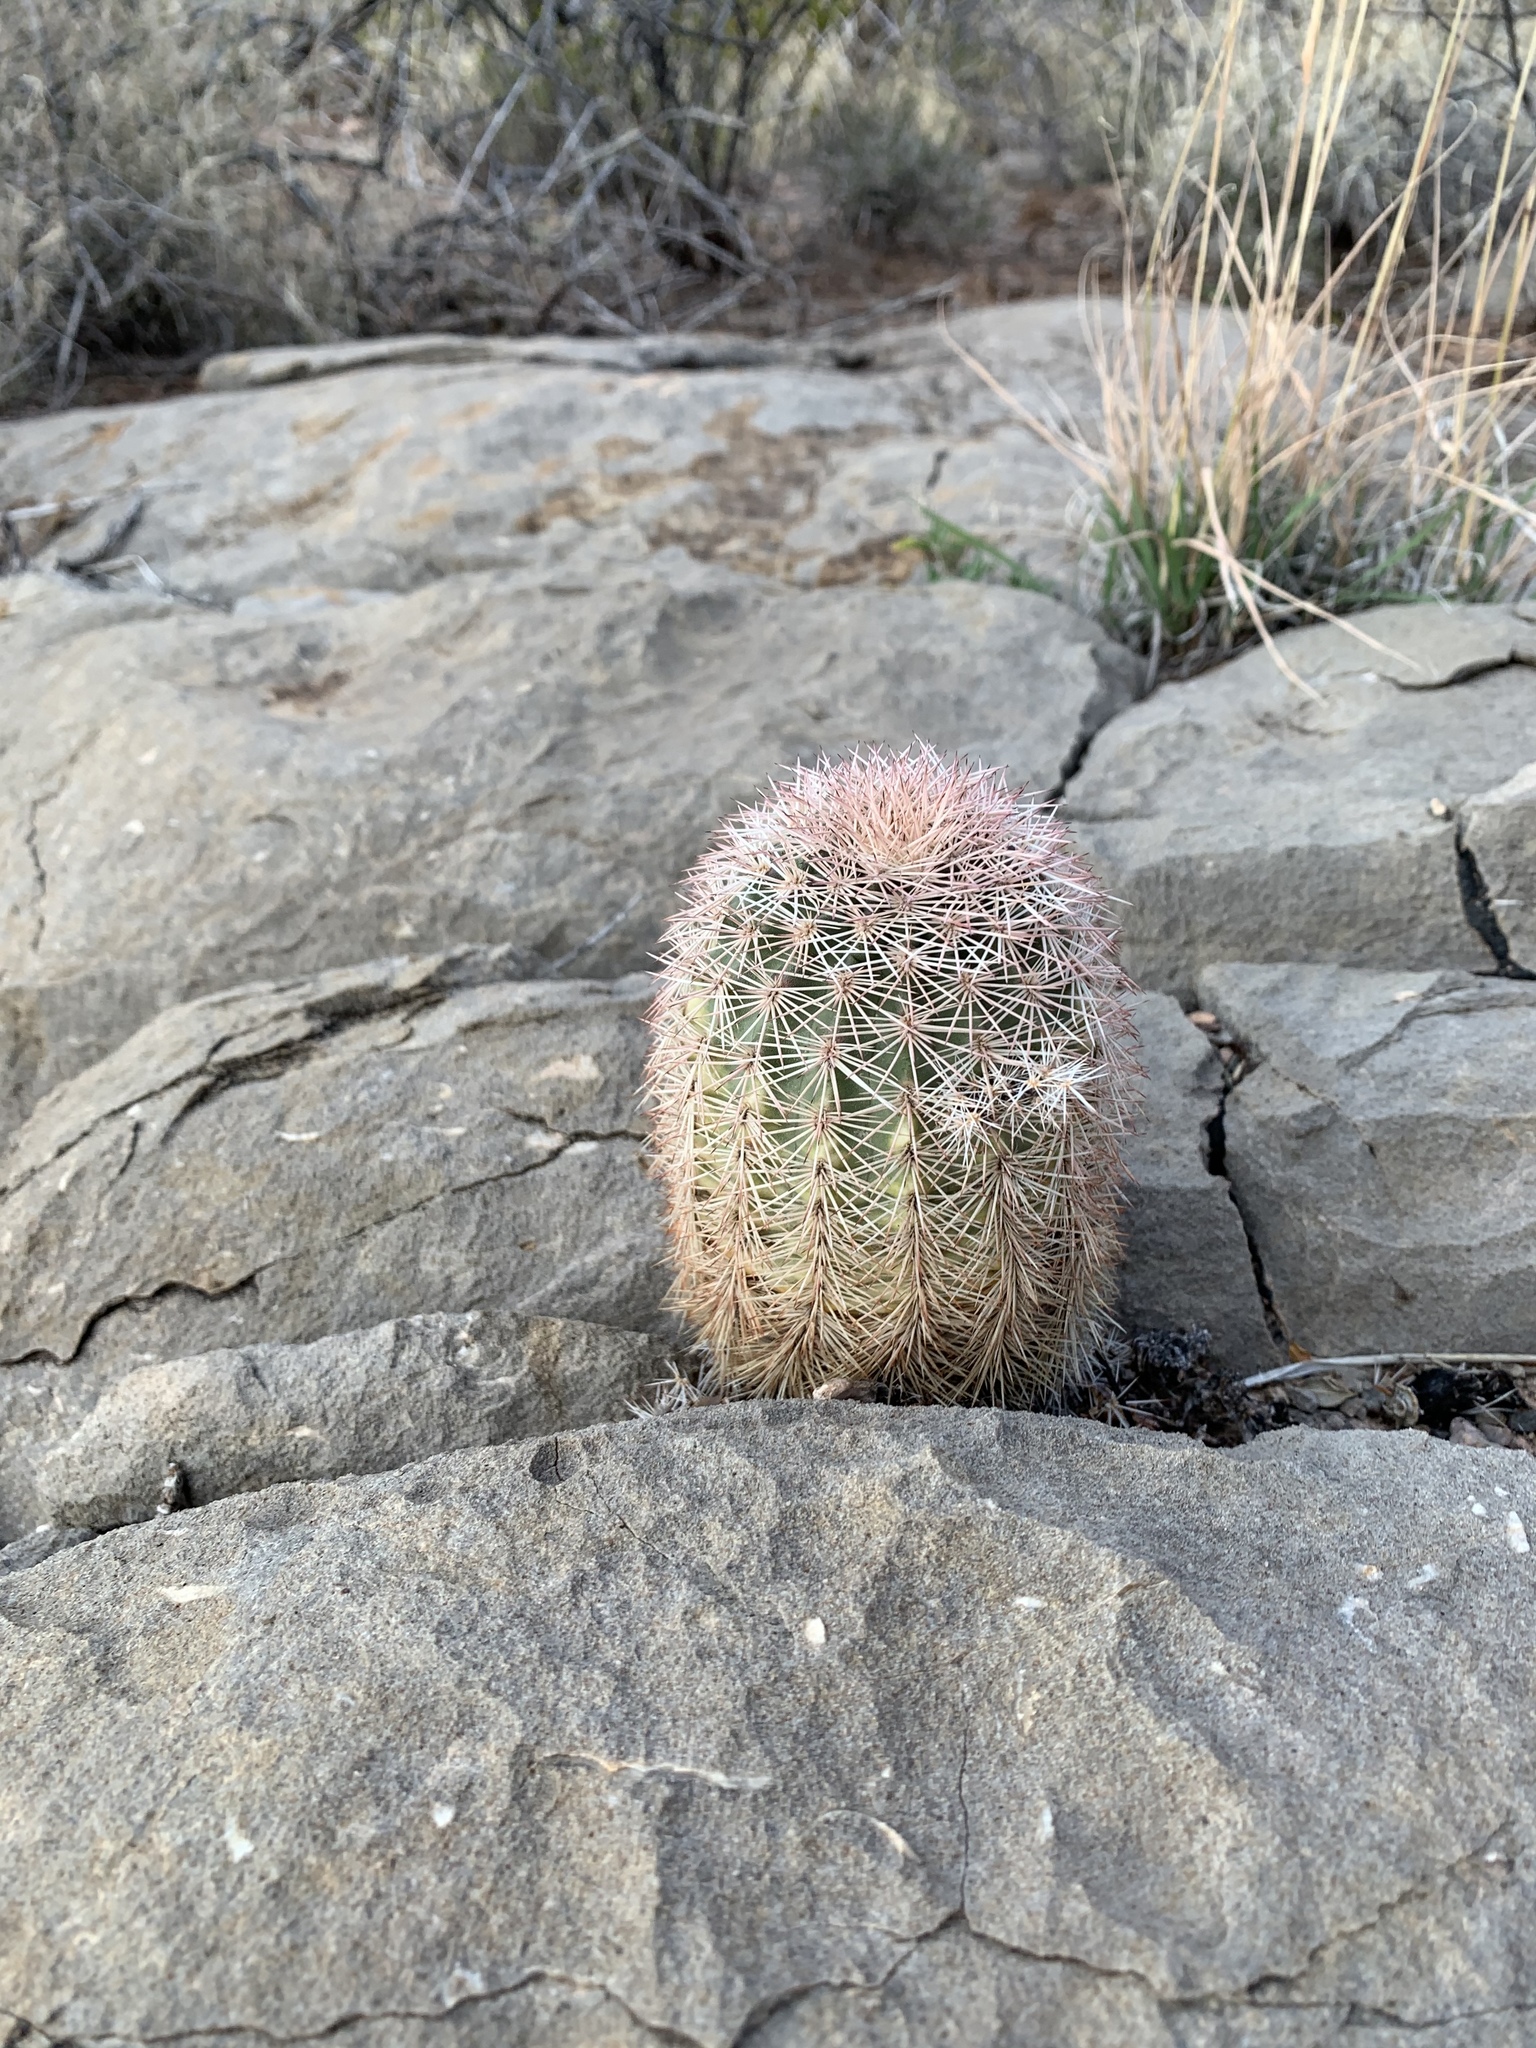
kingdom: Plantae
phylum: Tracheophyta
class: Magnoliopsida
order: Caryophyllales
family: Cactaceae
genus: Echinocereus
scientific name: Echinocereus dasyacanthus
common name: Spiny hedgehog cactus
